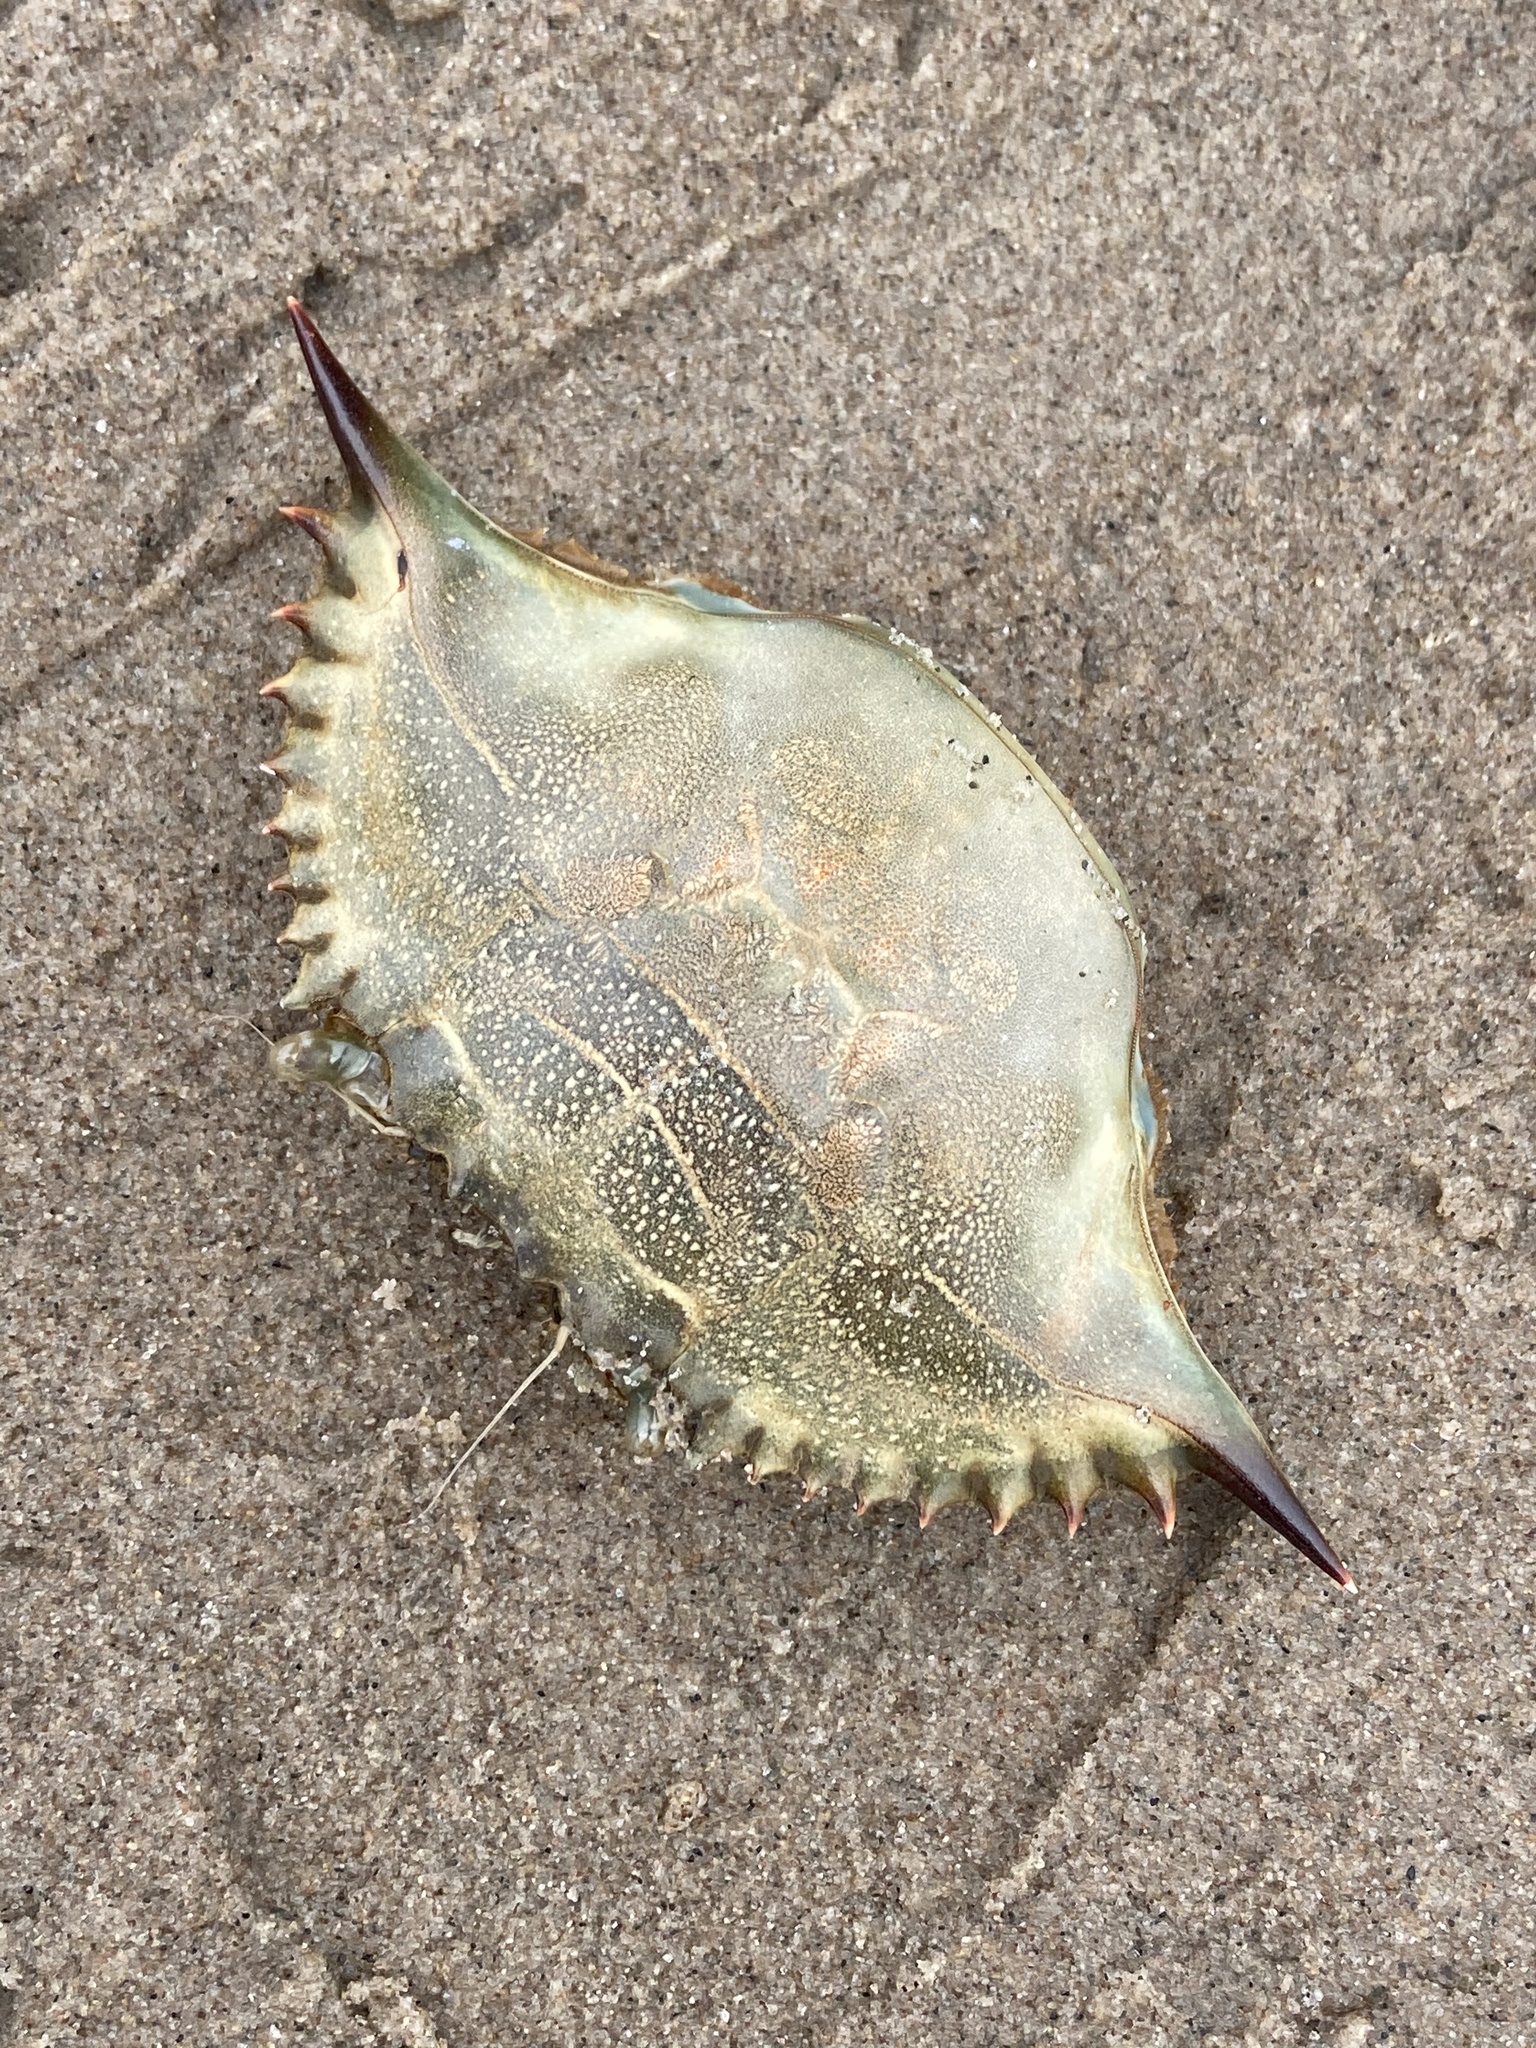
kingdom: Animalia
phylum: Arthropoda
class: Malacostraca
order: Decapoda
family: Portunidae
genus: Callinectes
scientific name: Callinectes sapidus
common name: Blue crab
